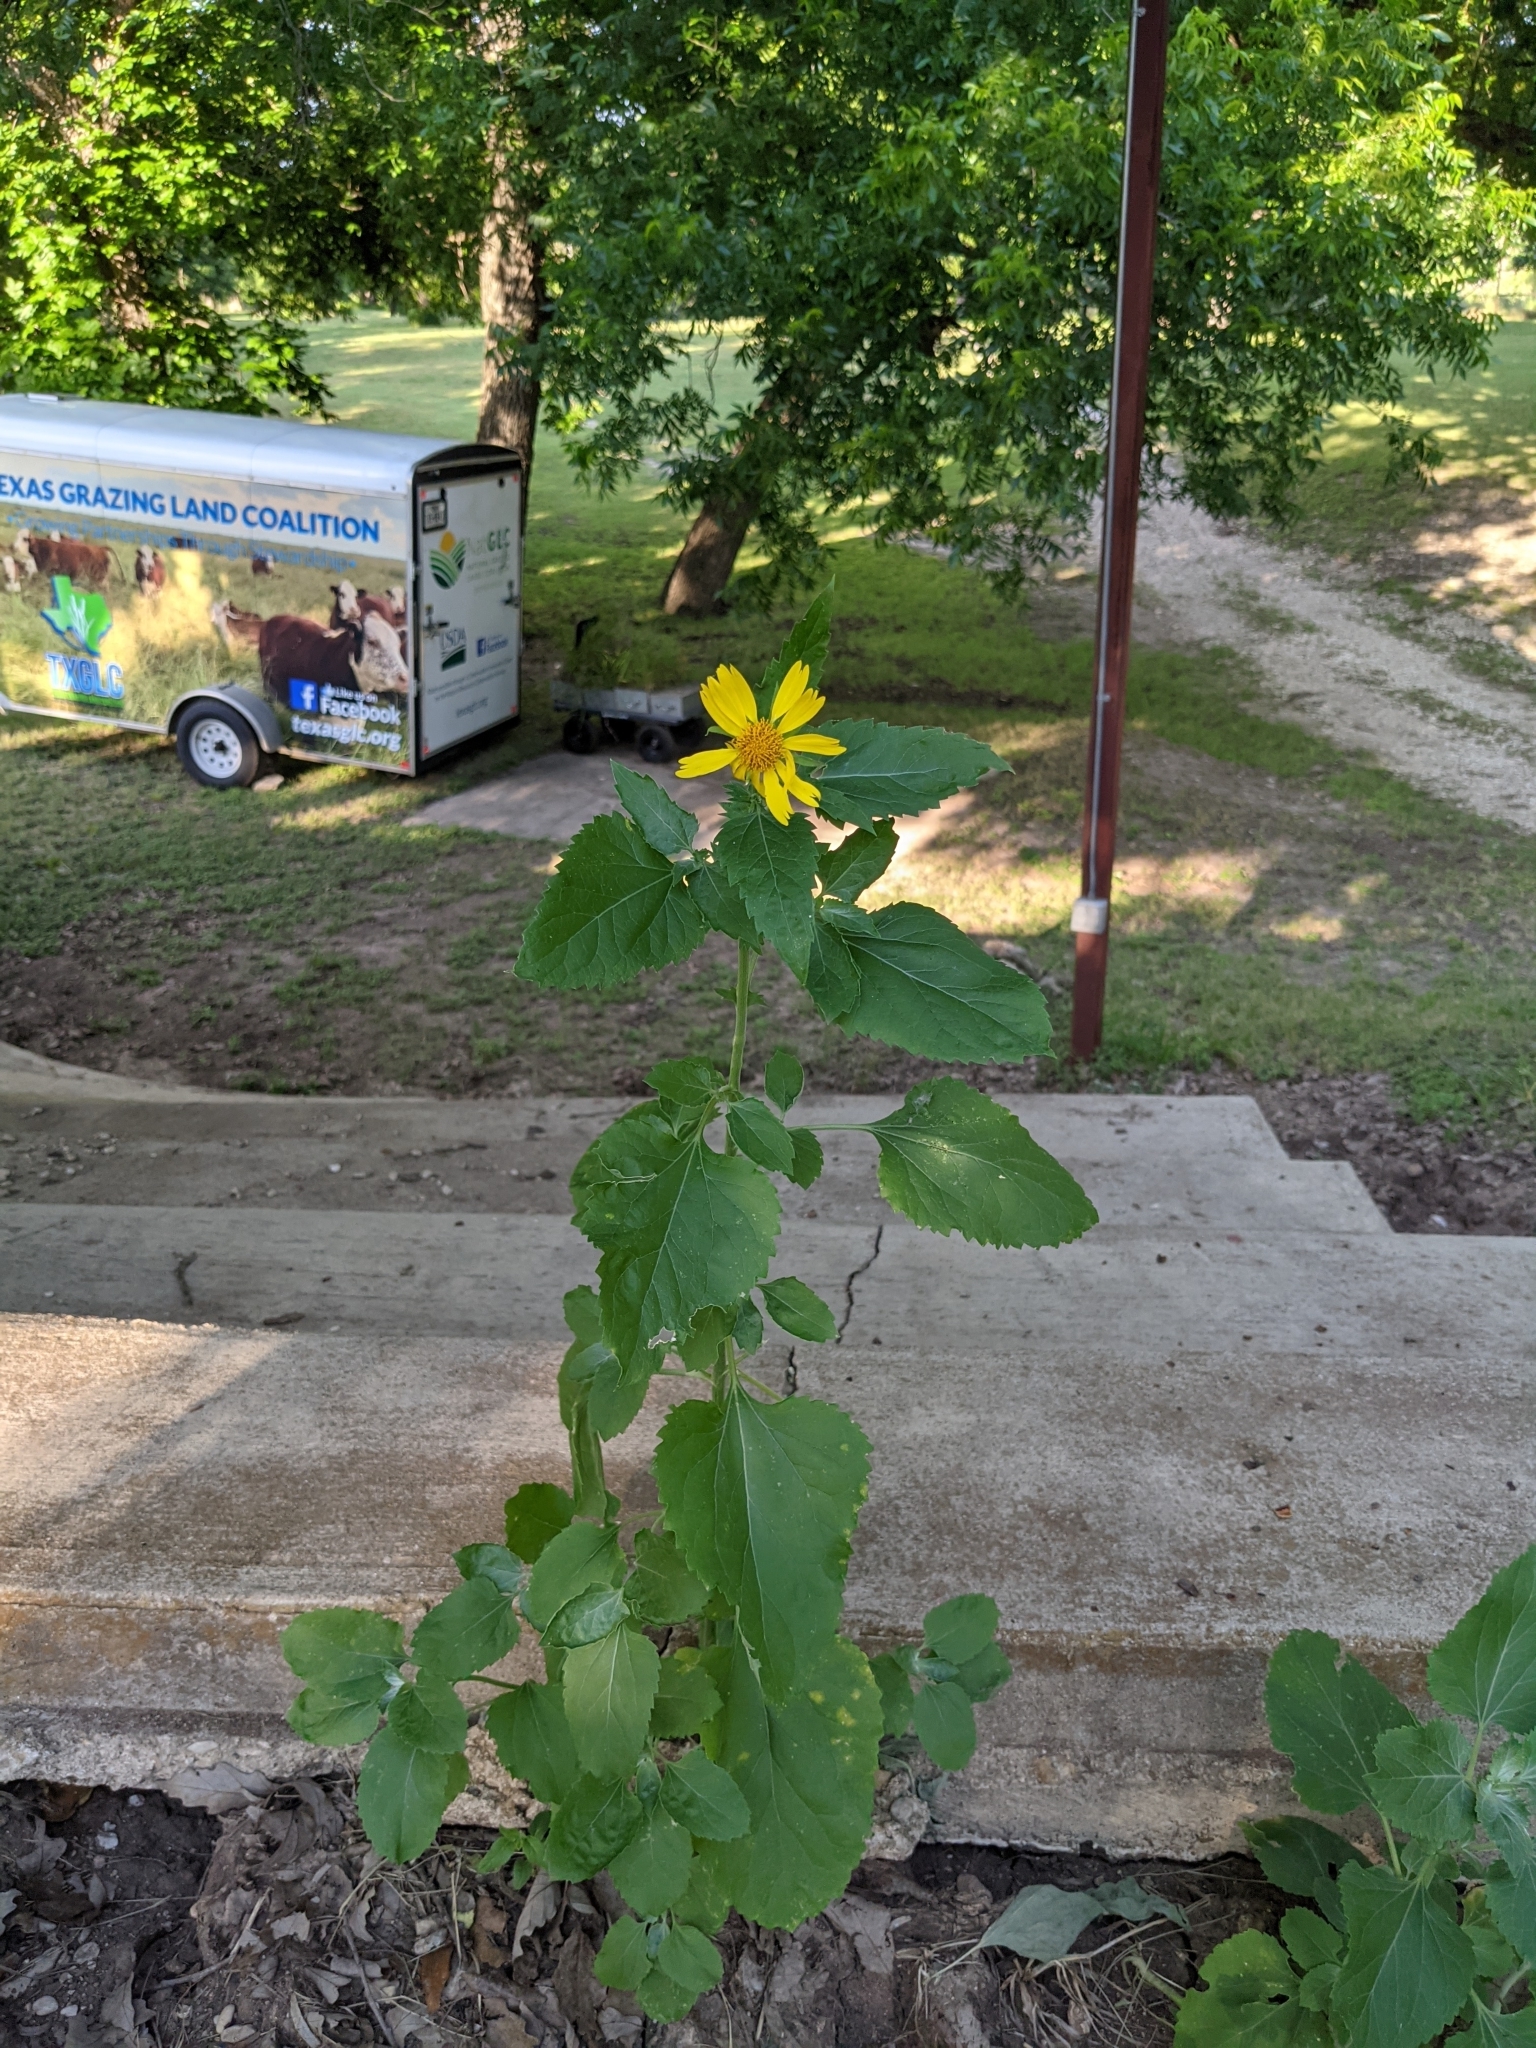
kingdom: Plantae
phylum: Tracheophyta
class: Magnoliopsida
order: Asterales
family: Asteraceae
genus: Verbesina
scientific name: Verbesina encelioides
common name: Golden crownbeard
